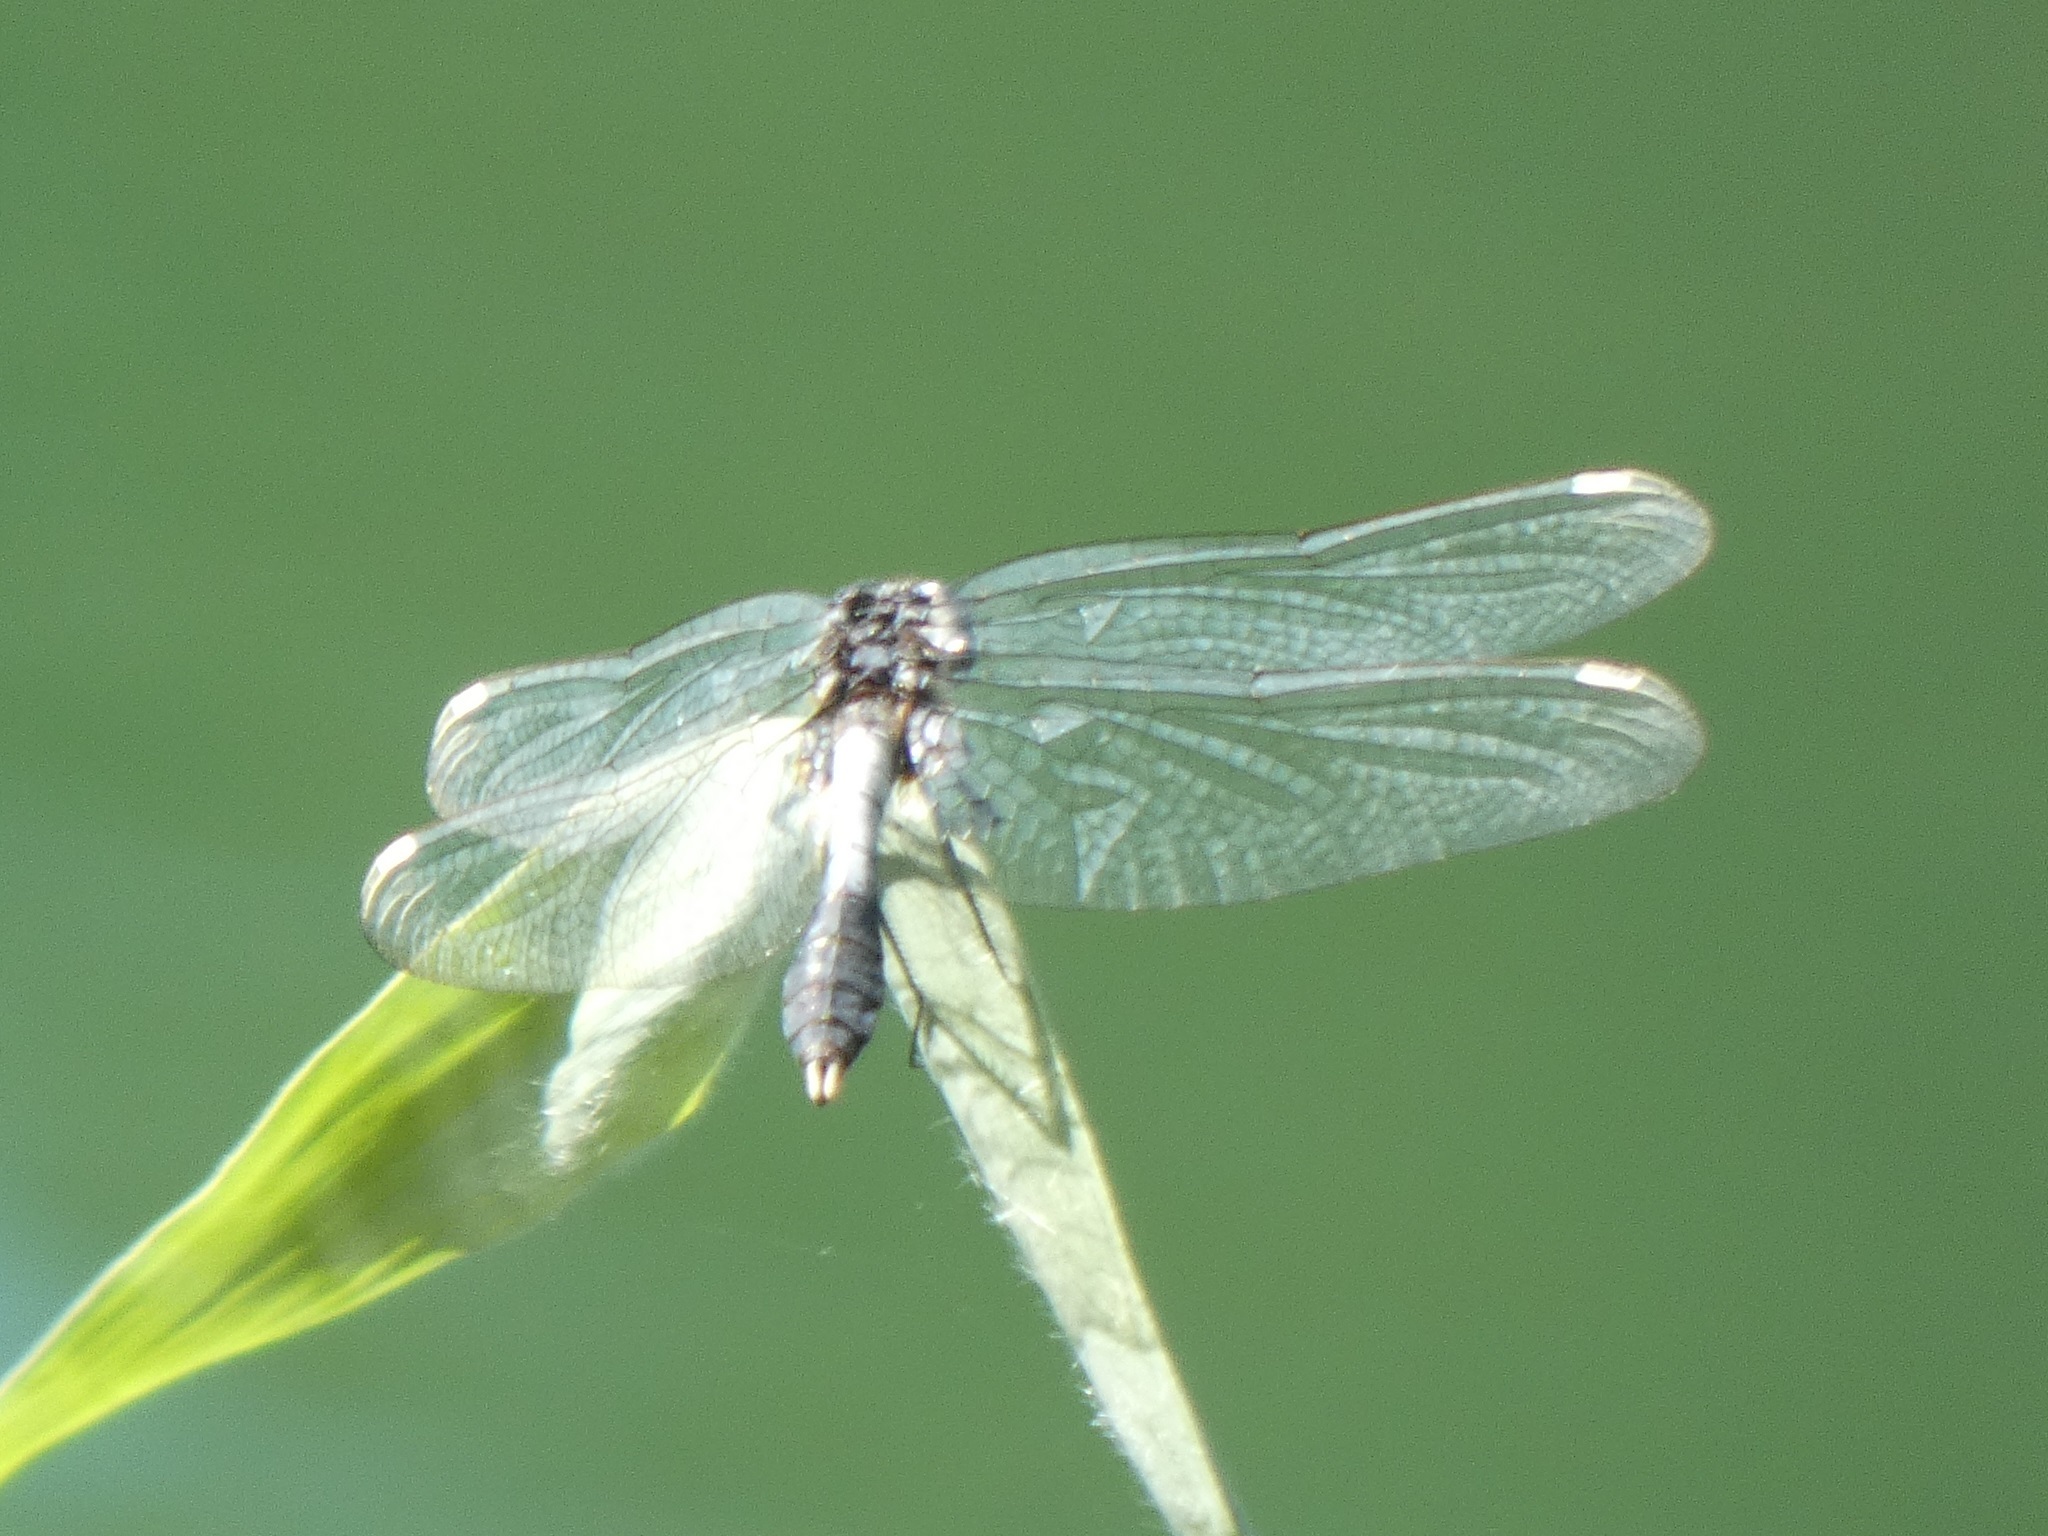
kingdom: Animalia
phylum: Arthropoda
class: Insecta
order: Odonata
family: Libellulidae
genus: Leucorrhinia
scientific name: Leucorrhinia caudalis
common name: Lilypad whiteface
